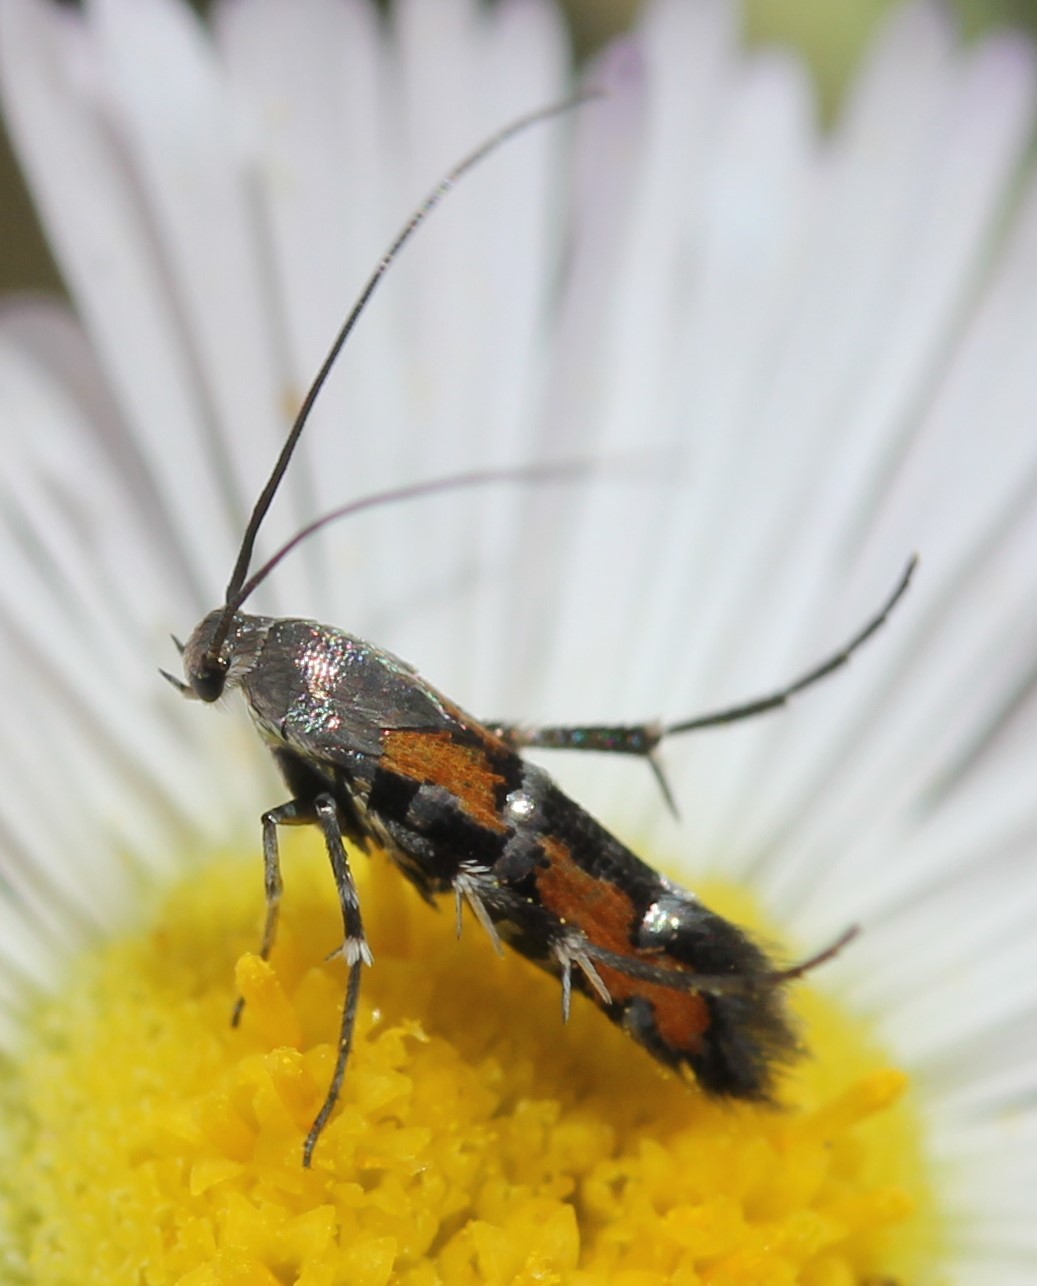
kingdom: Animalia
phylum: Arthropoda
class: Insecta
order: Lepidoptera
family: Heliodinidae
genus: Lamprolophus
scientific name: Lamprolophus
